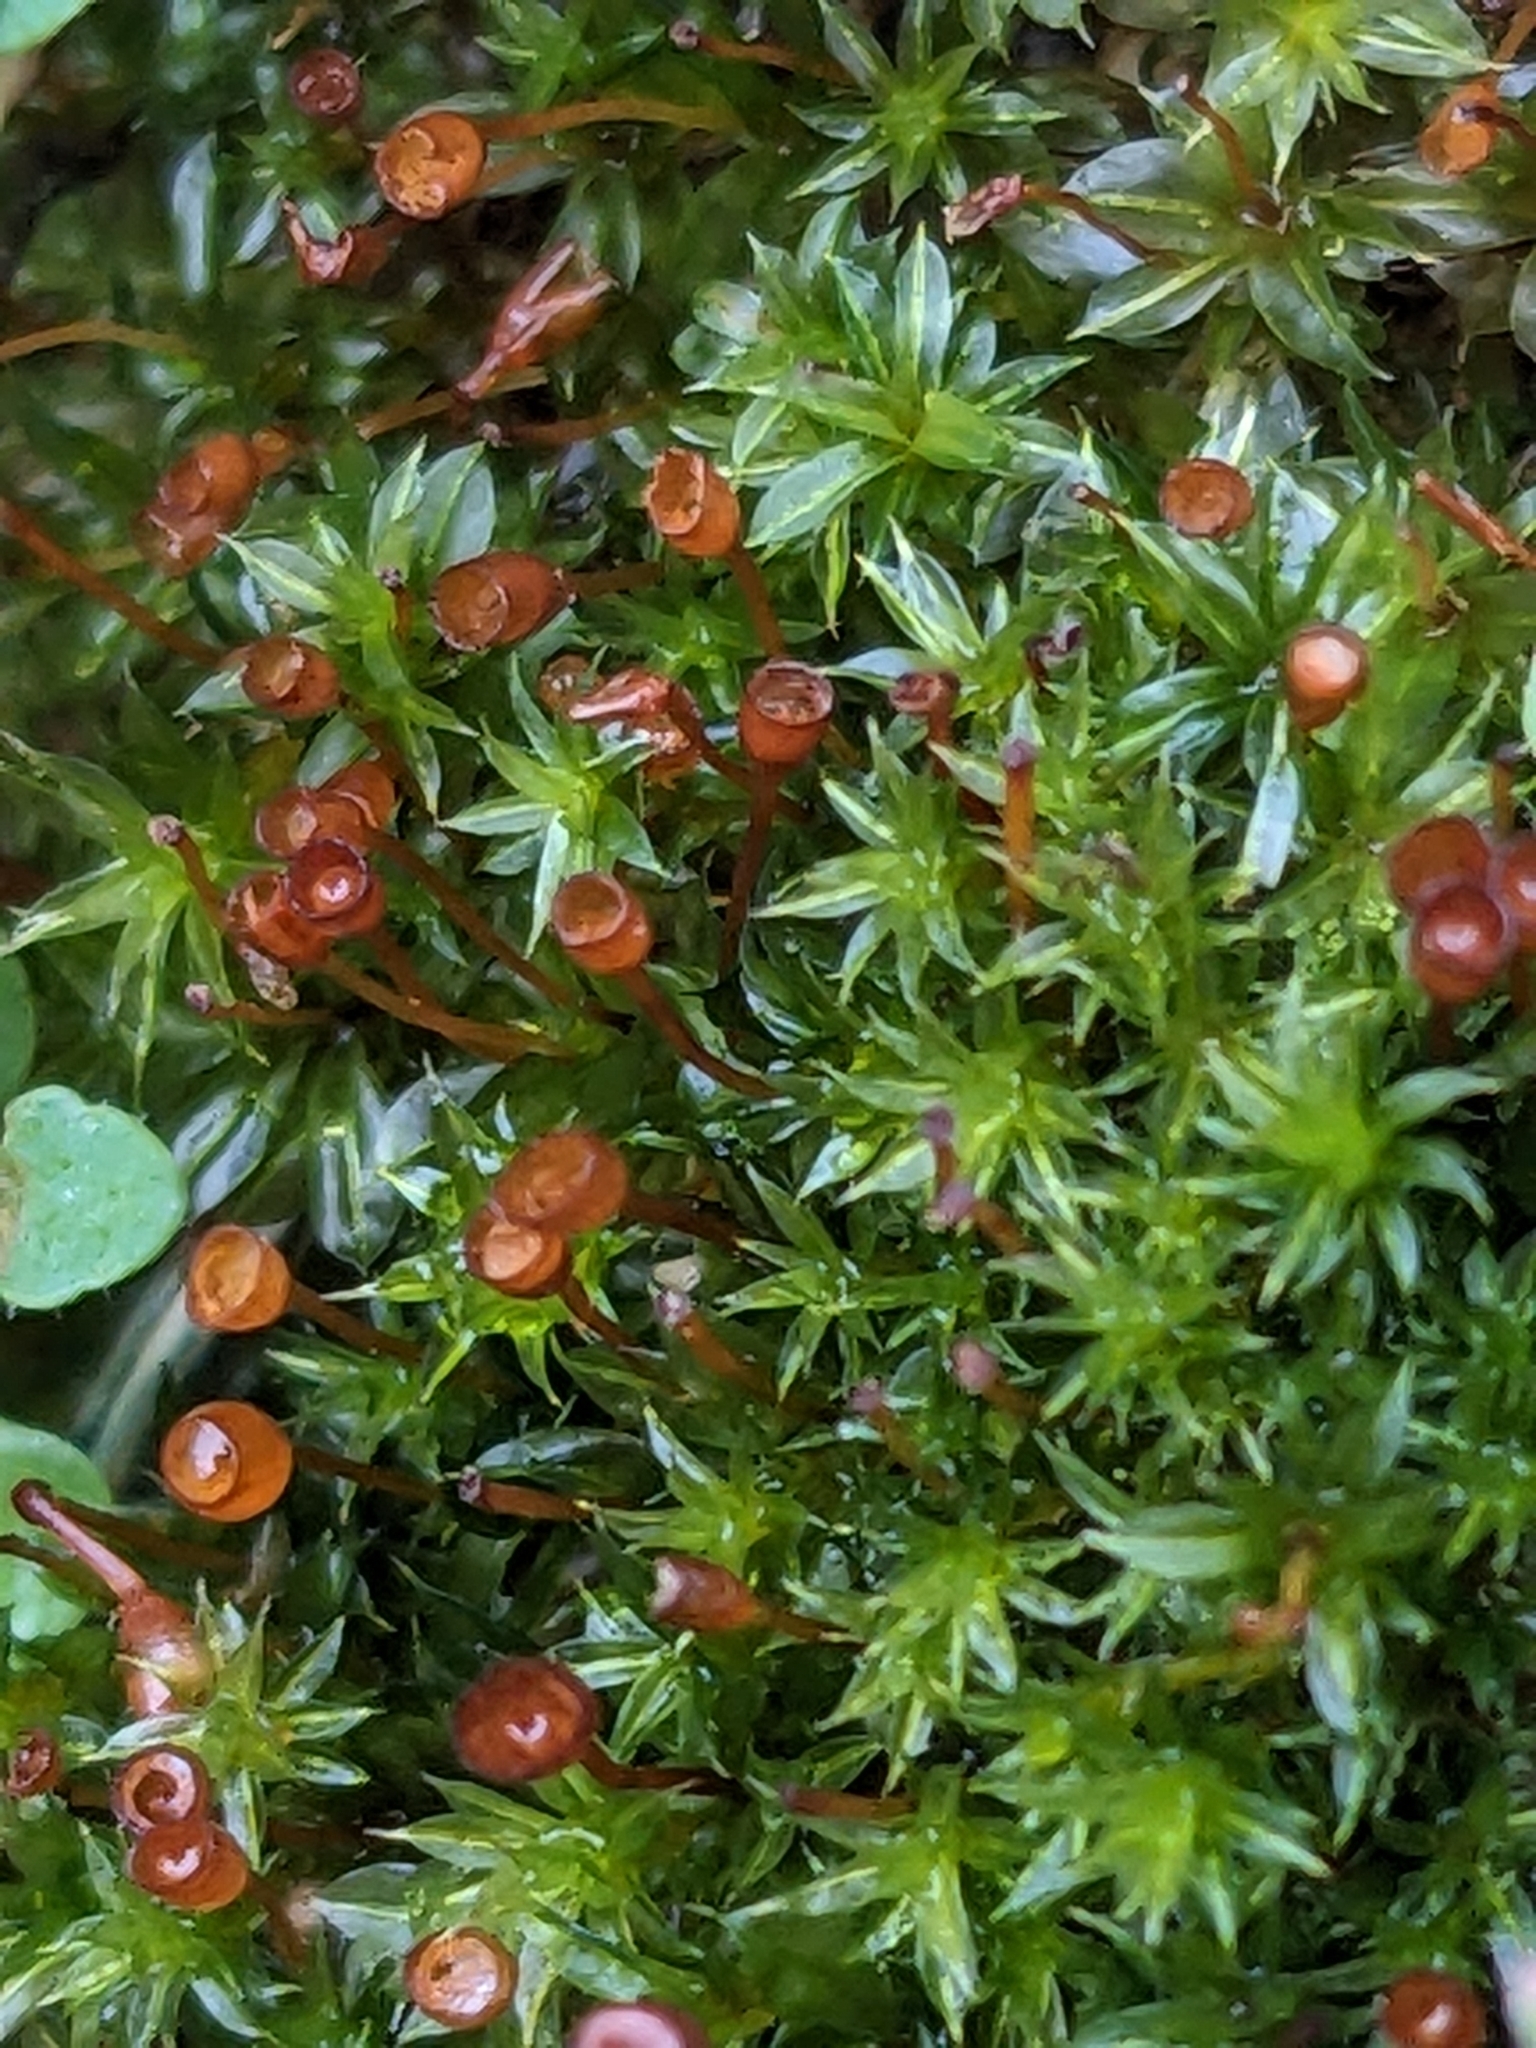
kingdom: Plantae
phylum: Bryophyta
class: Bryopsida
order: Pottiales
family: Pottiaceae
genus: Tortula
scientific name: Tortula truncata
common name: Truncated screw moss
